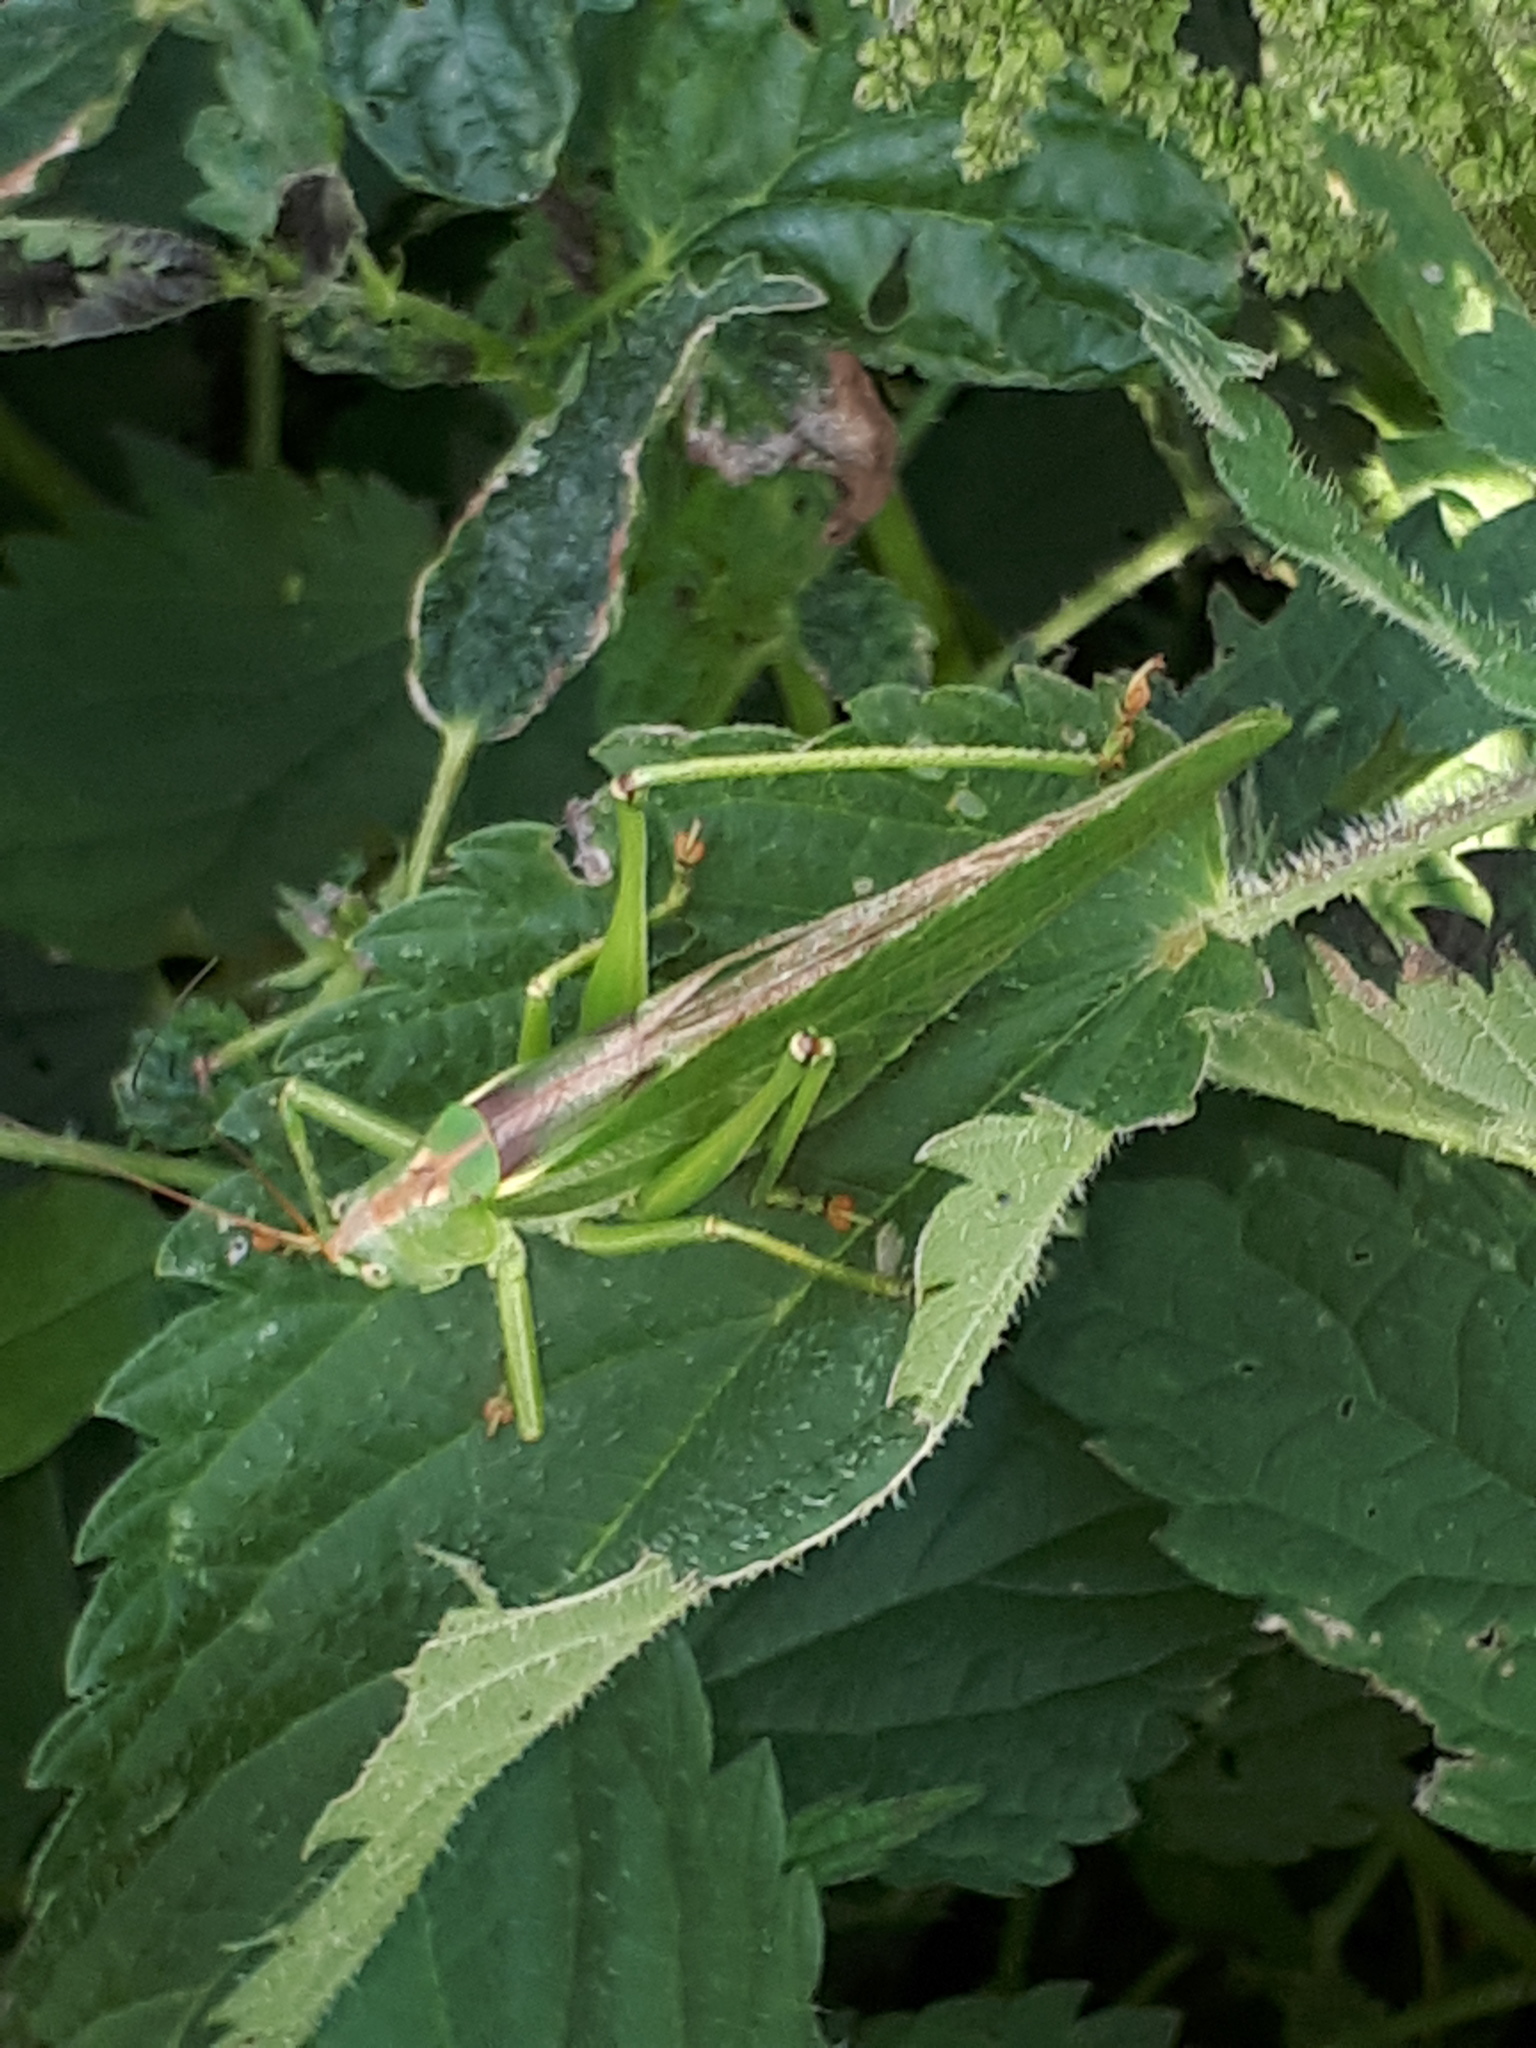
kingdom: Animalia
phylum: Arthropoda
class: Insecta
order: Orthoptera
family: Tettigoniidae
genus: Tettigonia
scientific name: Tettigonia viridissima
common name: Great green bush-cricket
